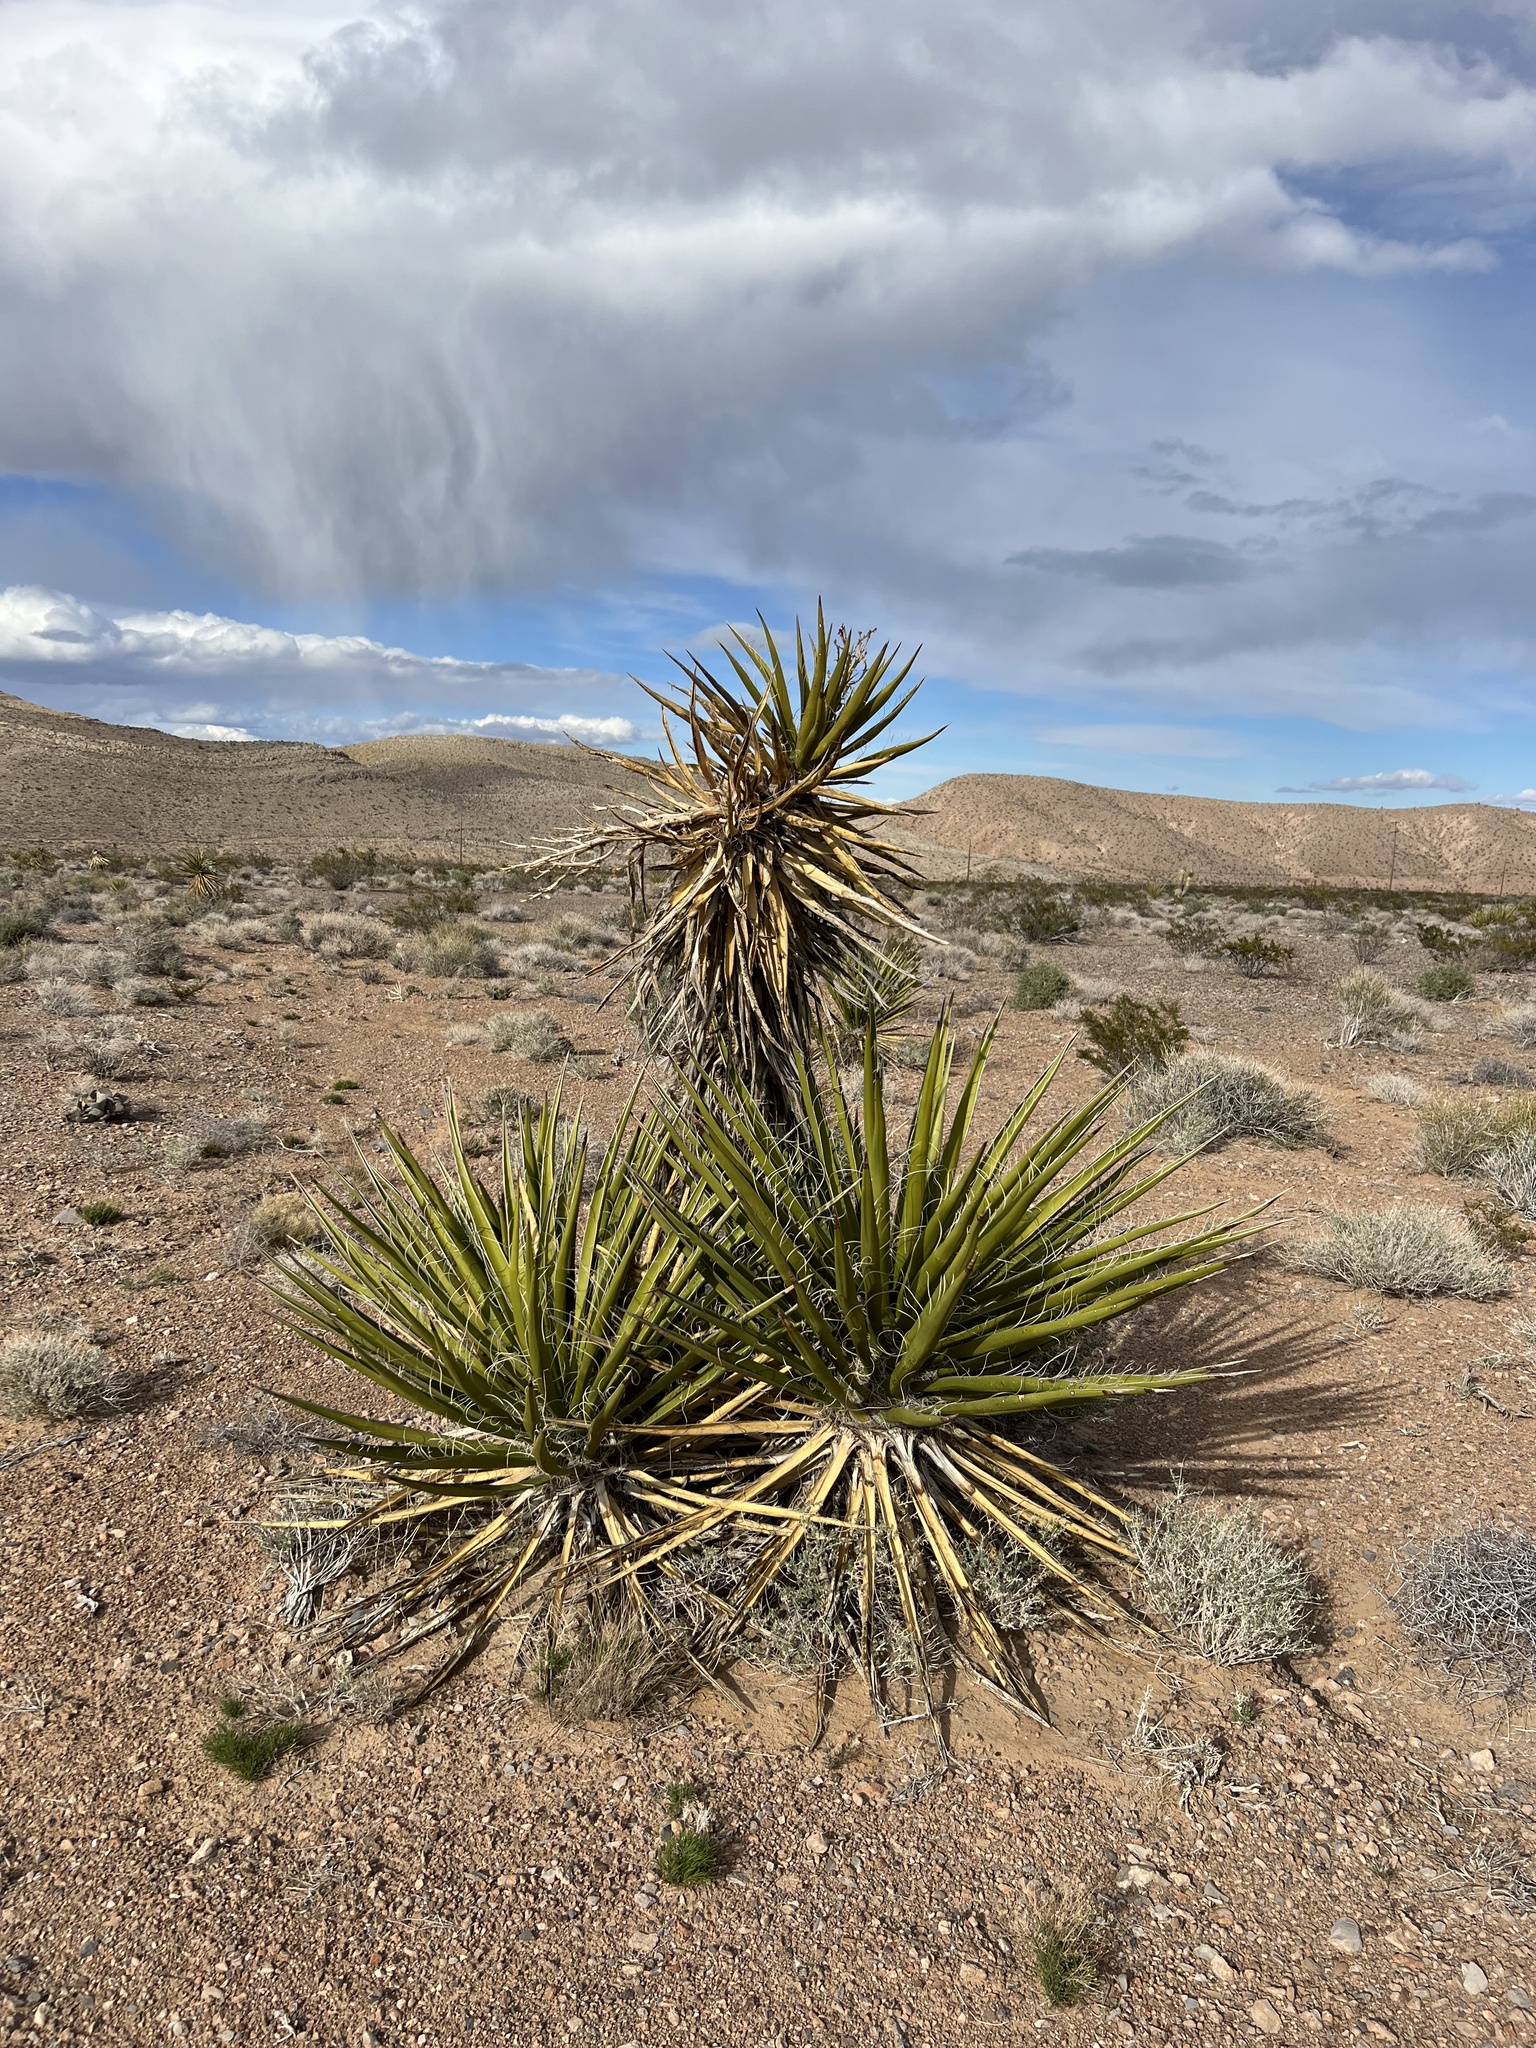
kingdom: Plantae
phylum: Tracheophyta
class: Liliopsida
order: Asparagales
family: Asparagaceae
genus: Yucca
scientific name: Yucca schidigera
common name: Mojave yucca
